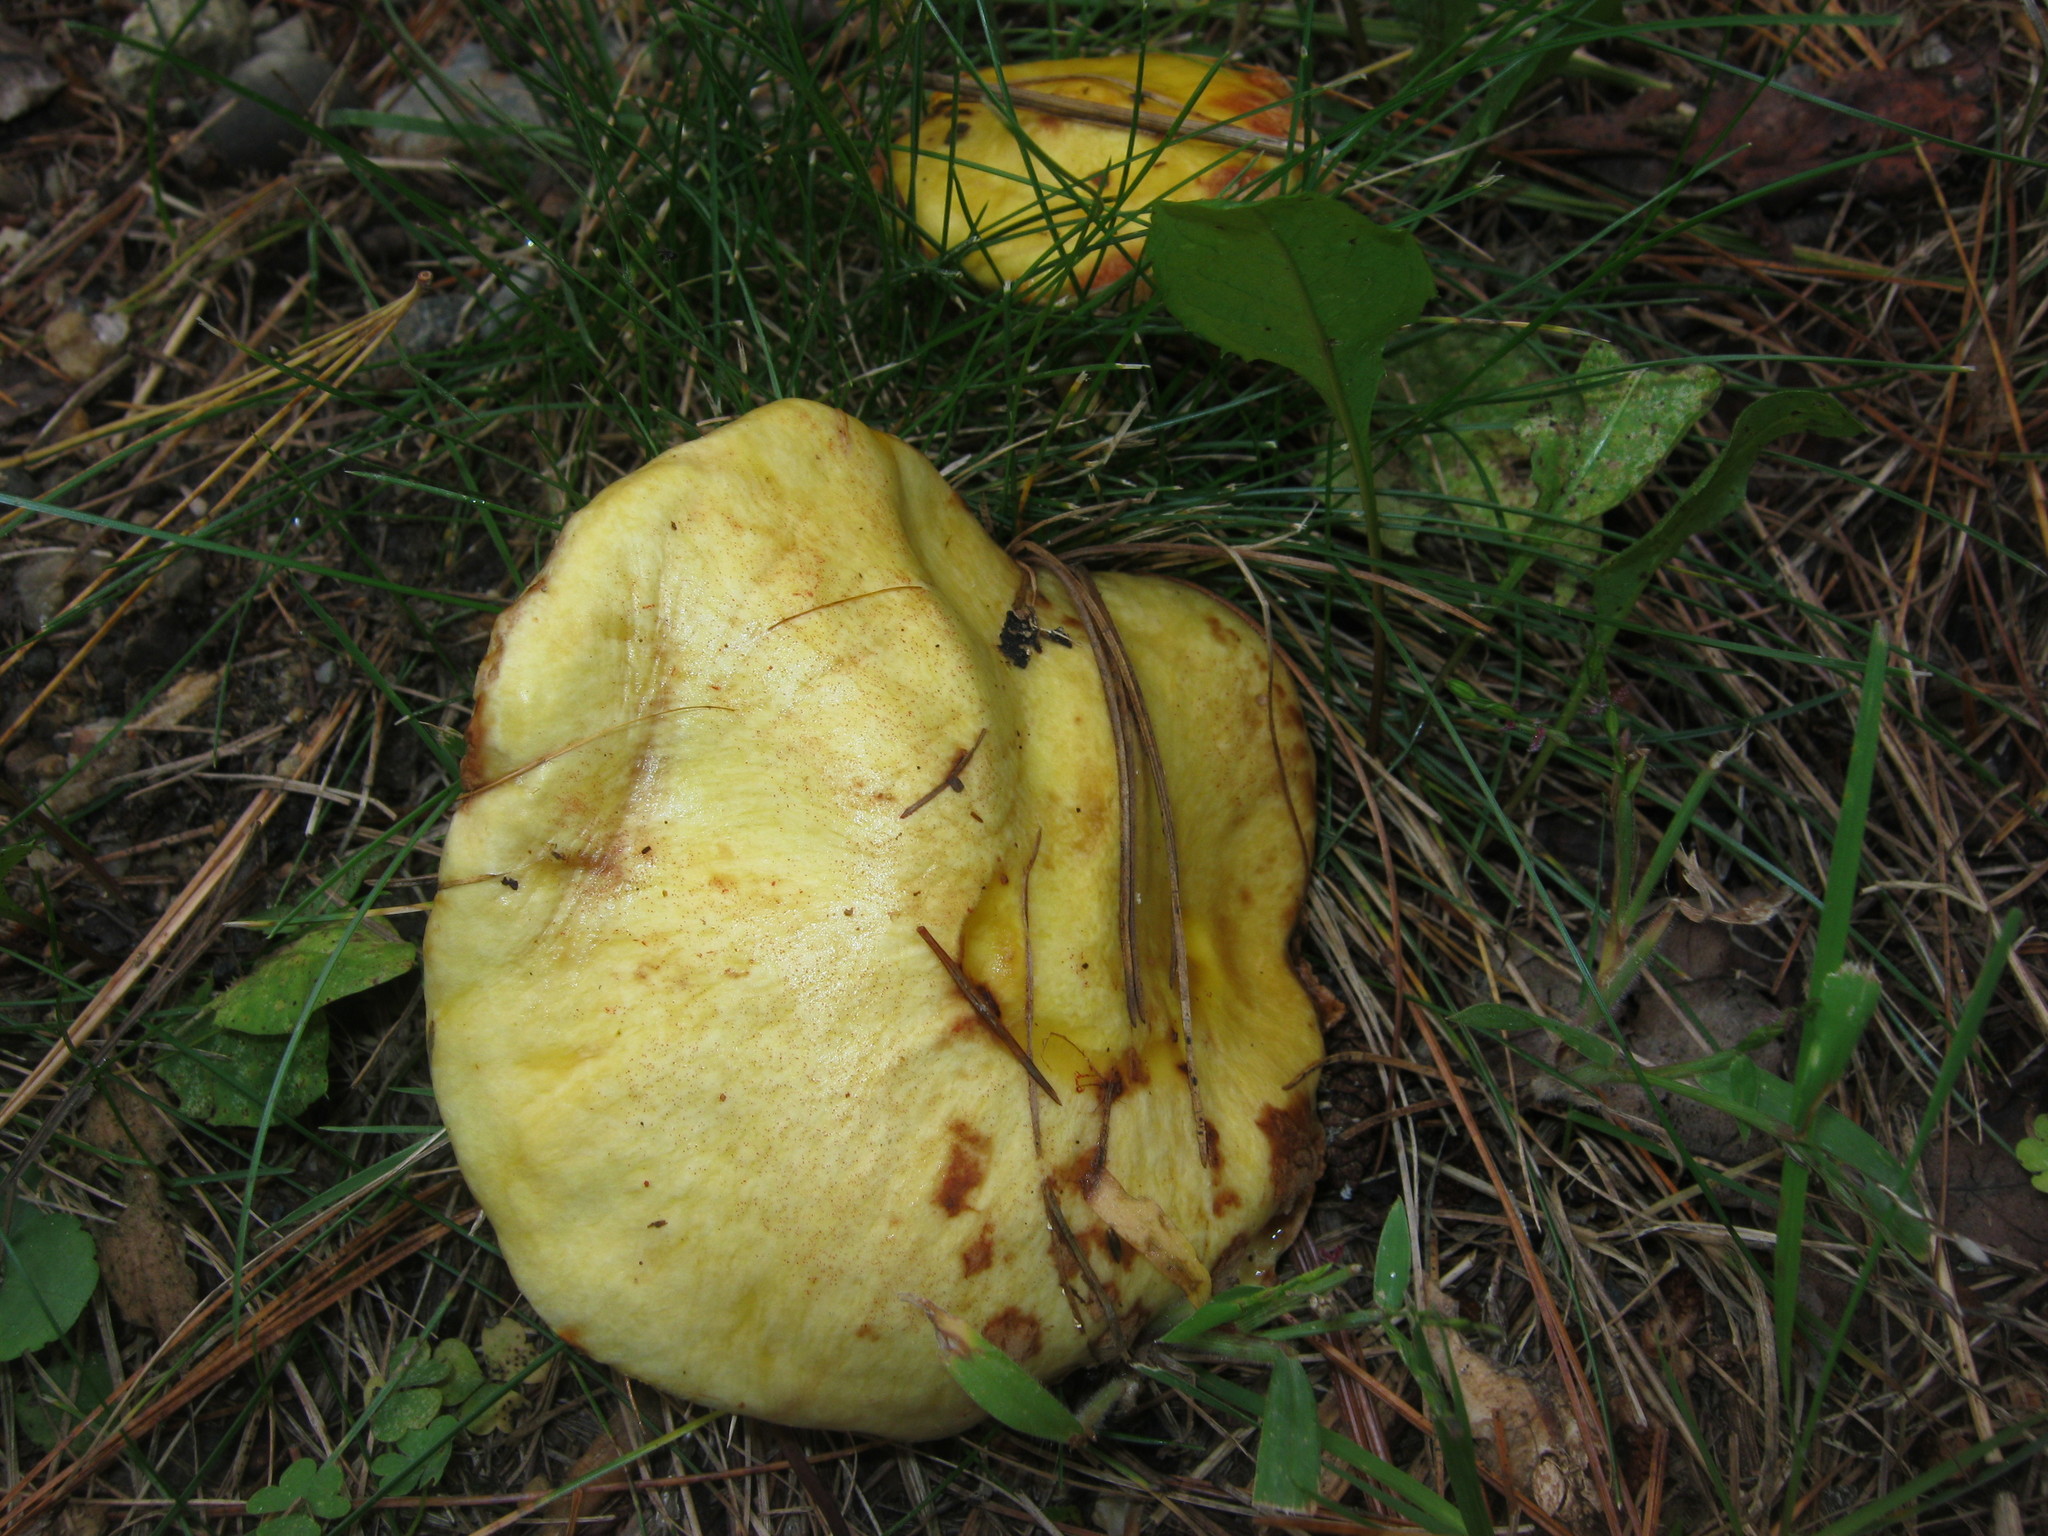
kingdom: Fungi
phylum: Basidiomycota
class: Agaricomycetes
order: Boletales
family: Suillaceae
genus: Suillus
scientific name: Suillus americanus
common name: Chicken fat mushroom
